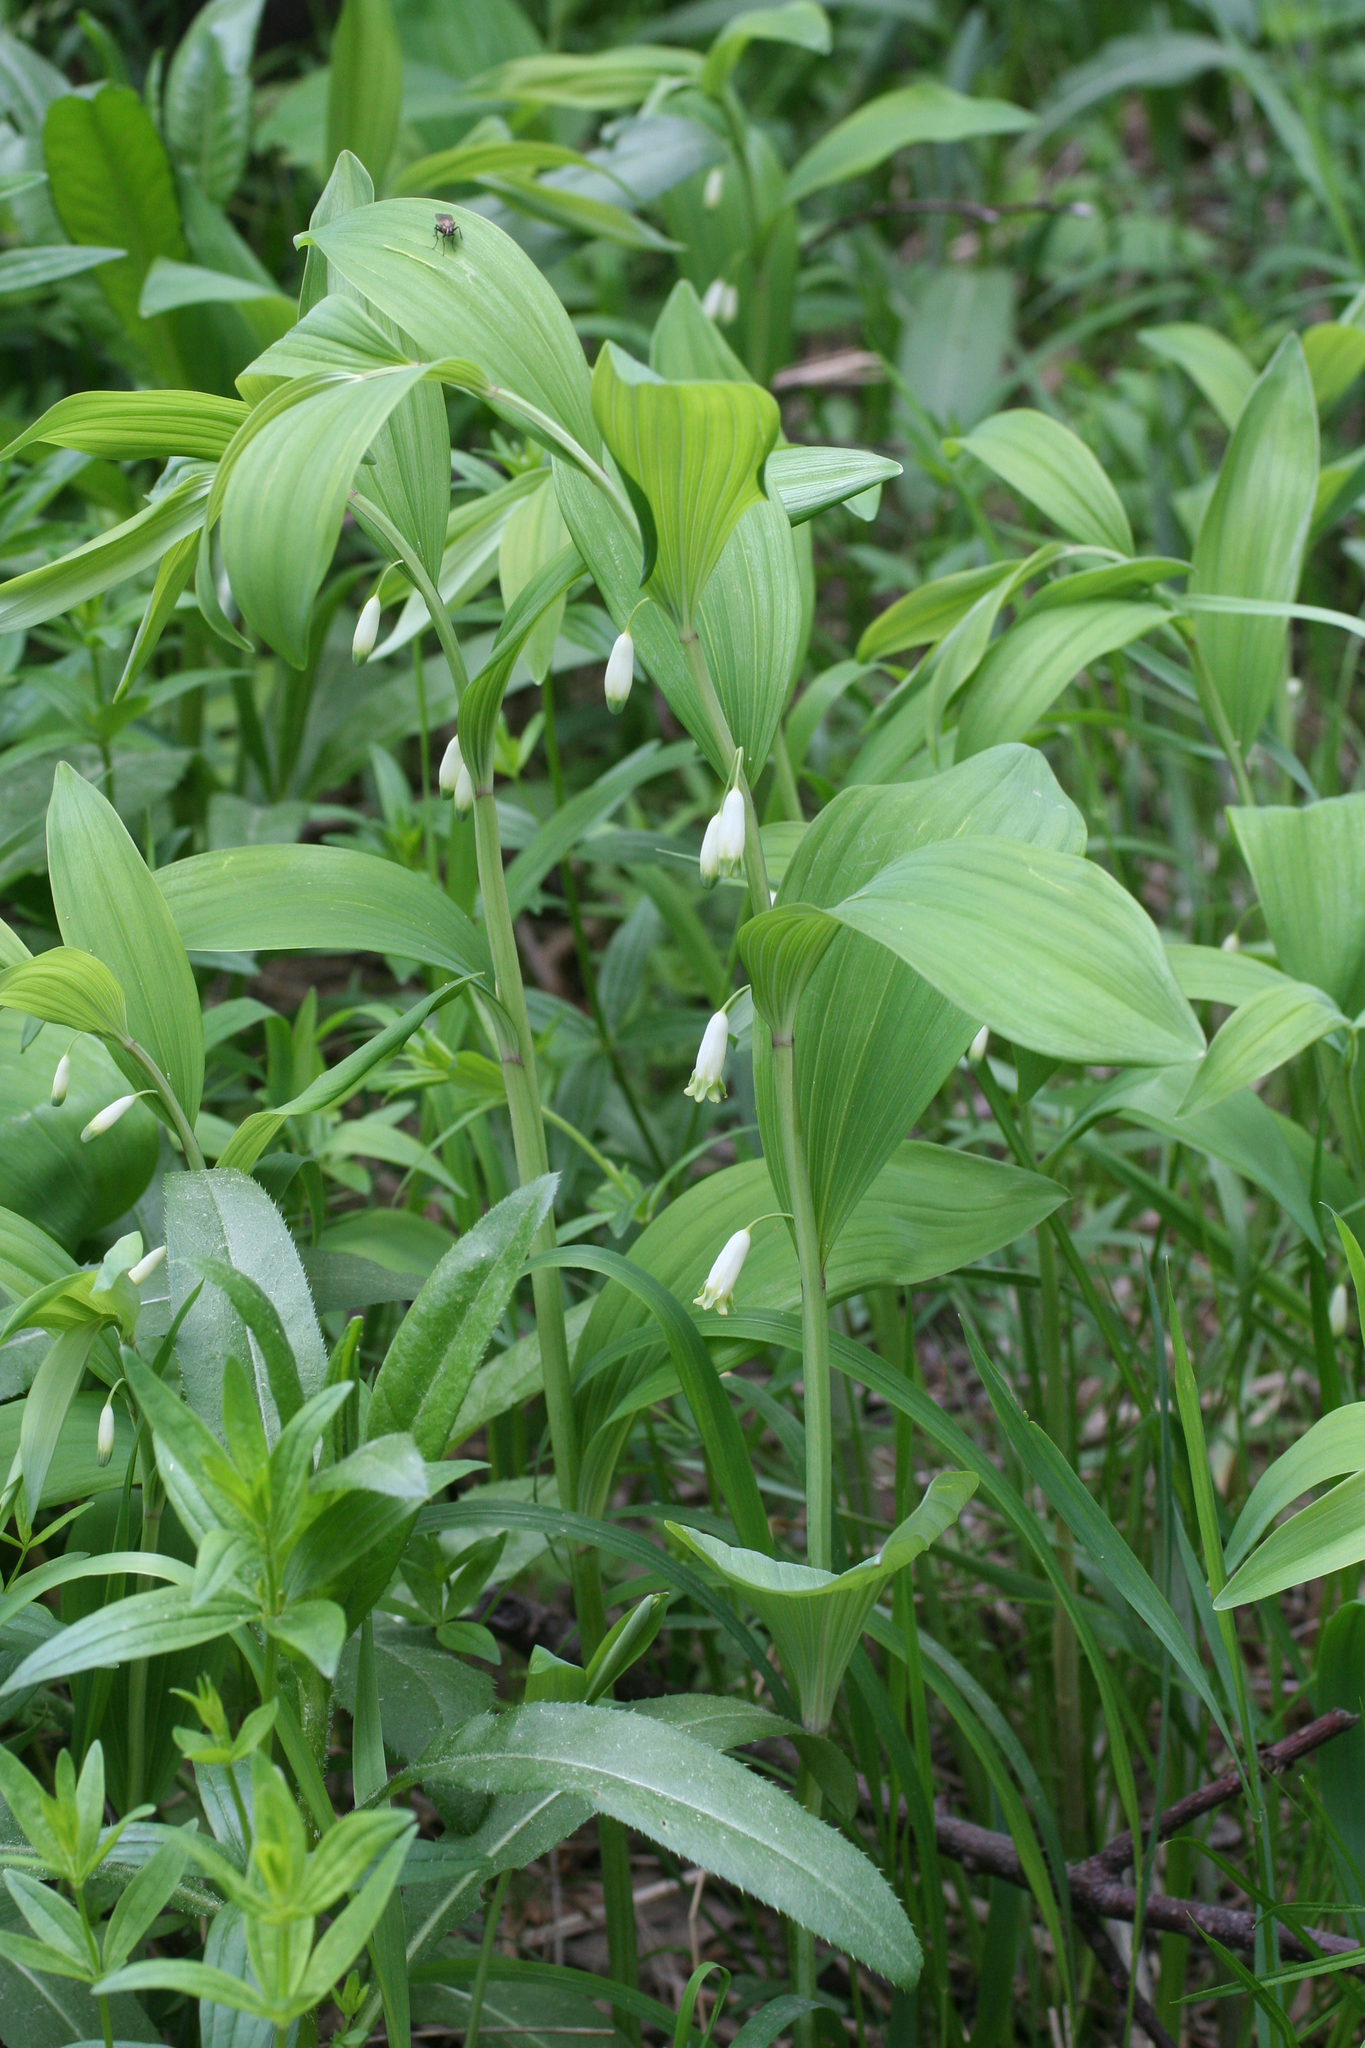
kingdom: Plantae
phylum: Tracheophyta
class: Liliopsida
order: Asparagales
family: Asparagaceae
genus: Polygonatum
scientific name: Polygonatum odoratum
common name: Angular solomon's-seal
